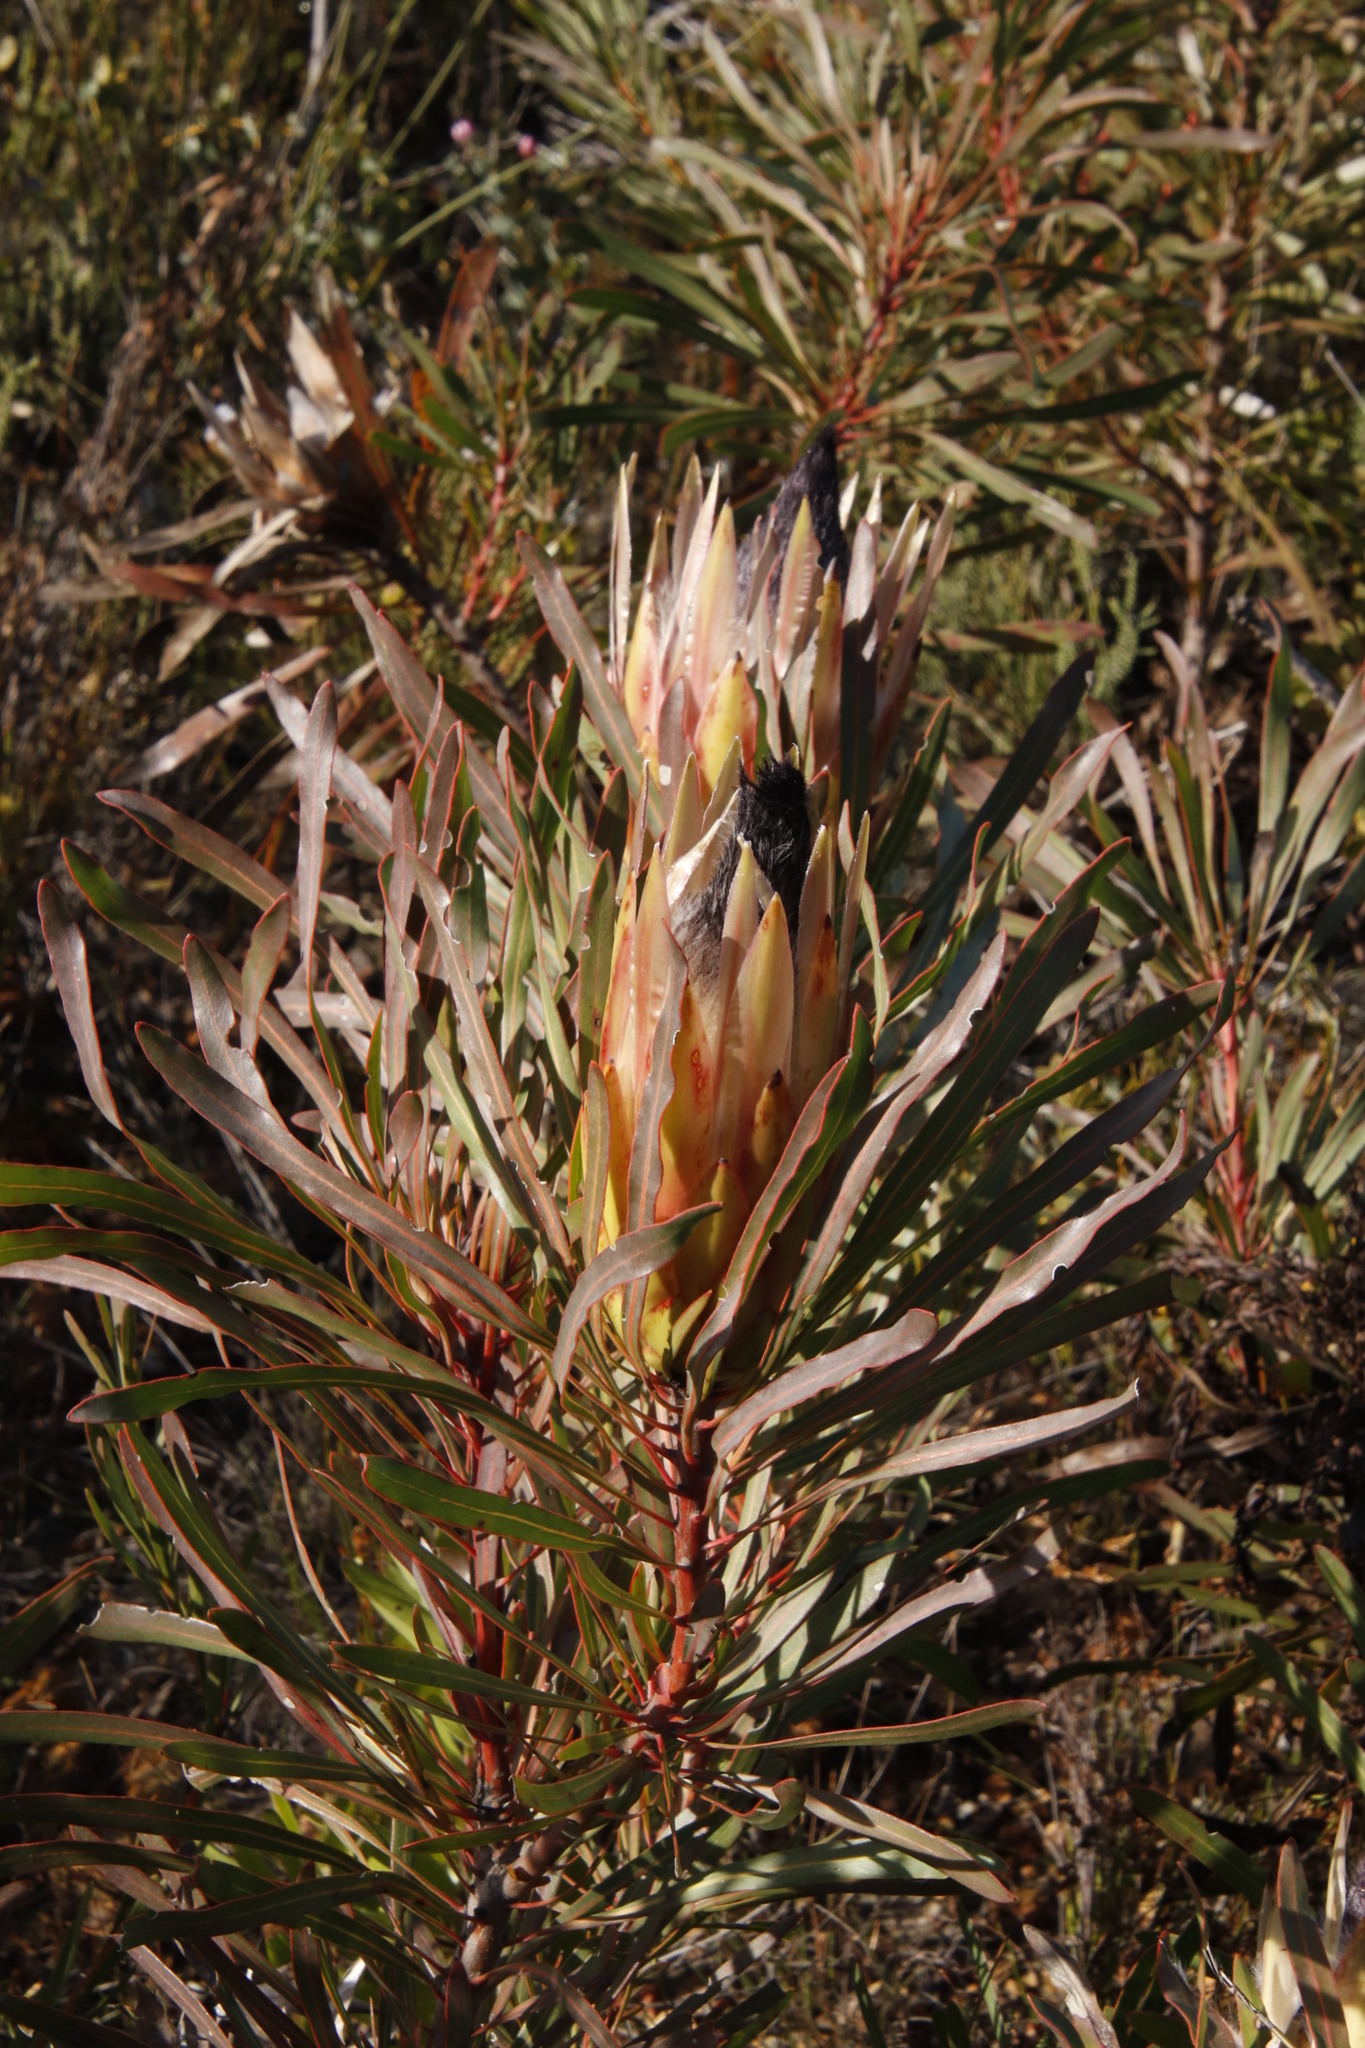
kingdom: Plantae
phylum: Tracheophyta
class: Magnoliopsida
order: Proteales
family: Proteaceae
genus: Protea
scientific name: Protea longifolia
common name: Long-leaf sugarbush
